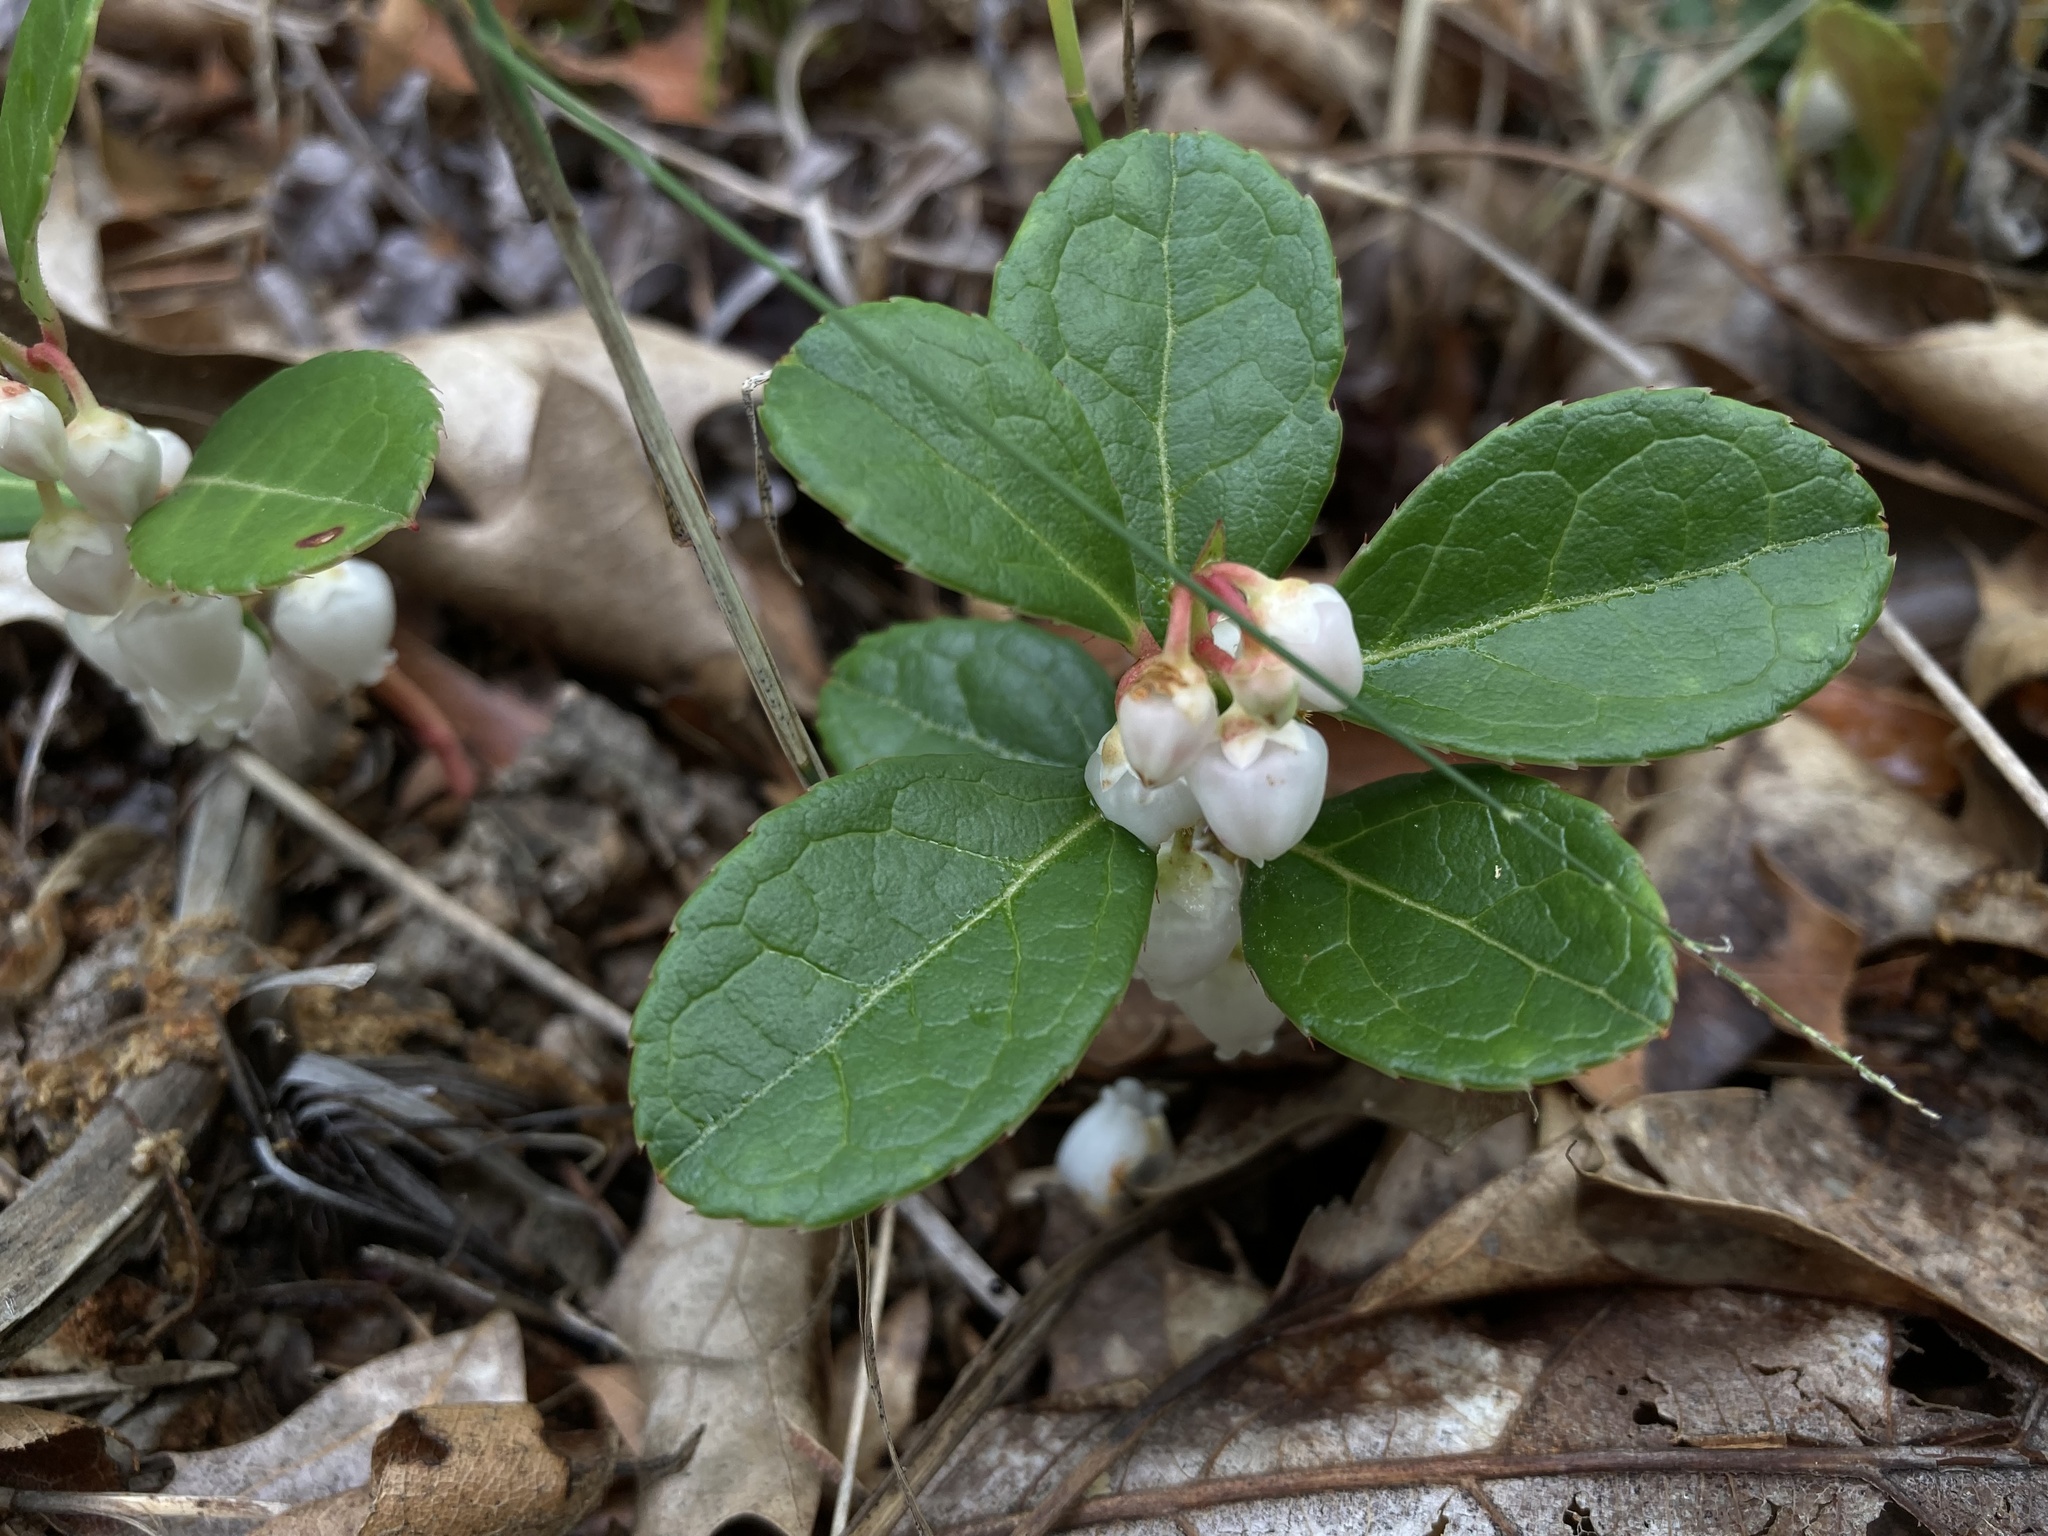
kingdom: Plantae
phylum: Tracheophyta
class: Magnoliopsida
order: Ericales
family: Ericaceae
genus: Gaultheria
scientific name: Gaultheria procumbens
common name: Checkerberry
